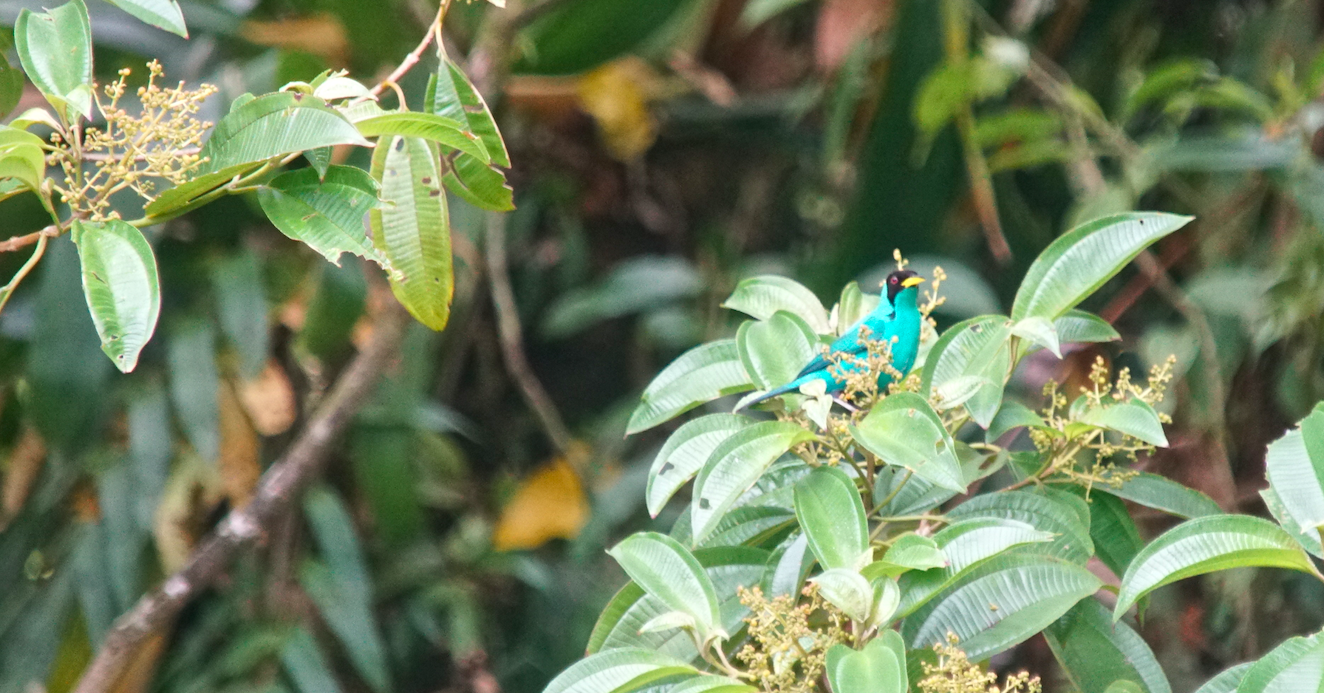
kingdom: Animalia
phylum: Chordata
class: Aves
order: Passeriformes
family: Thraupidae
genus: Chlorophanes
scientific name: Chlorophanes spiza
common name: Green honeycreeper
